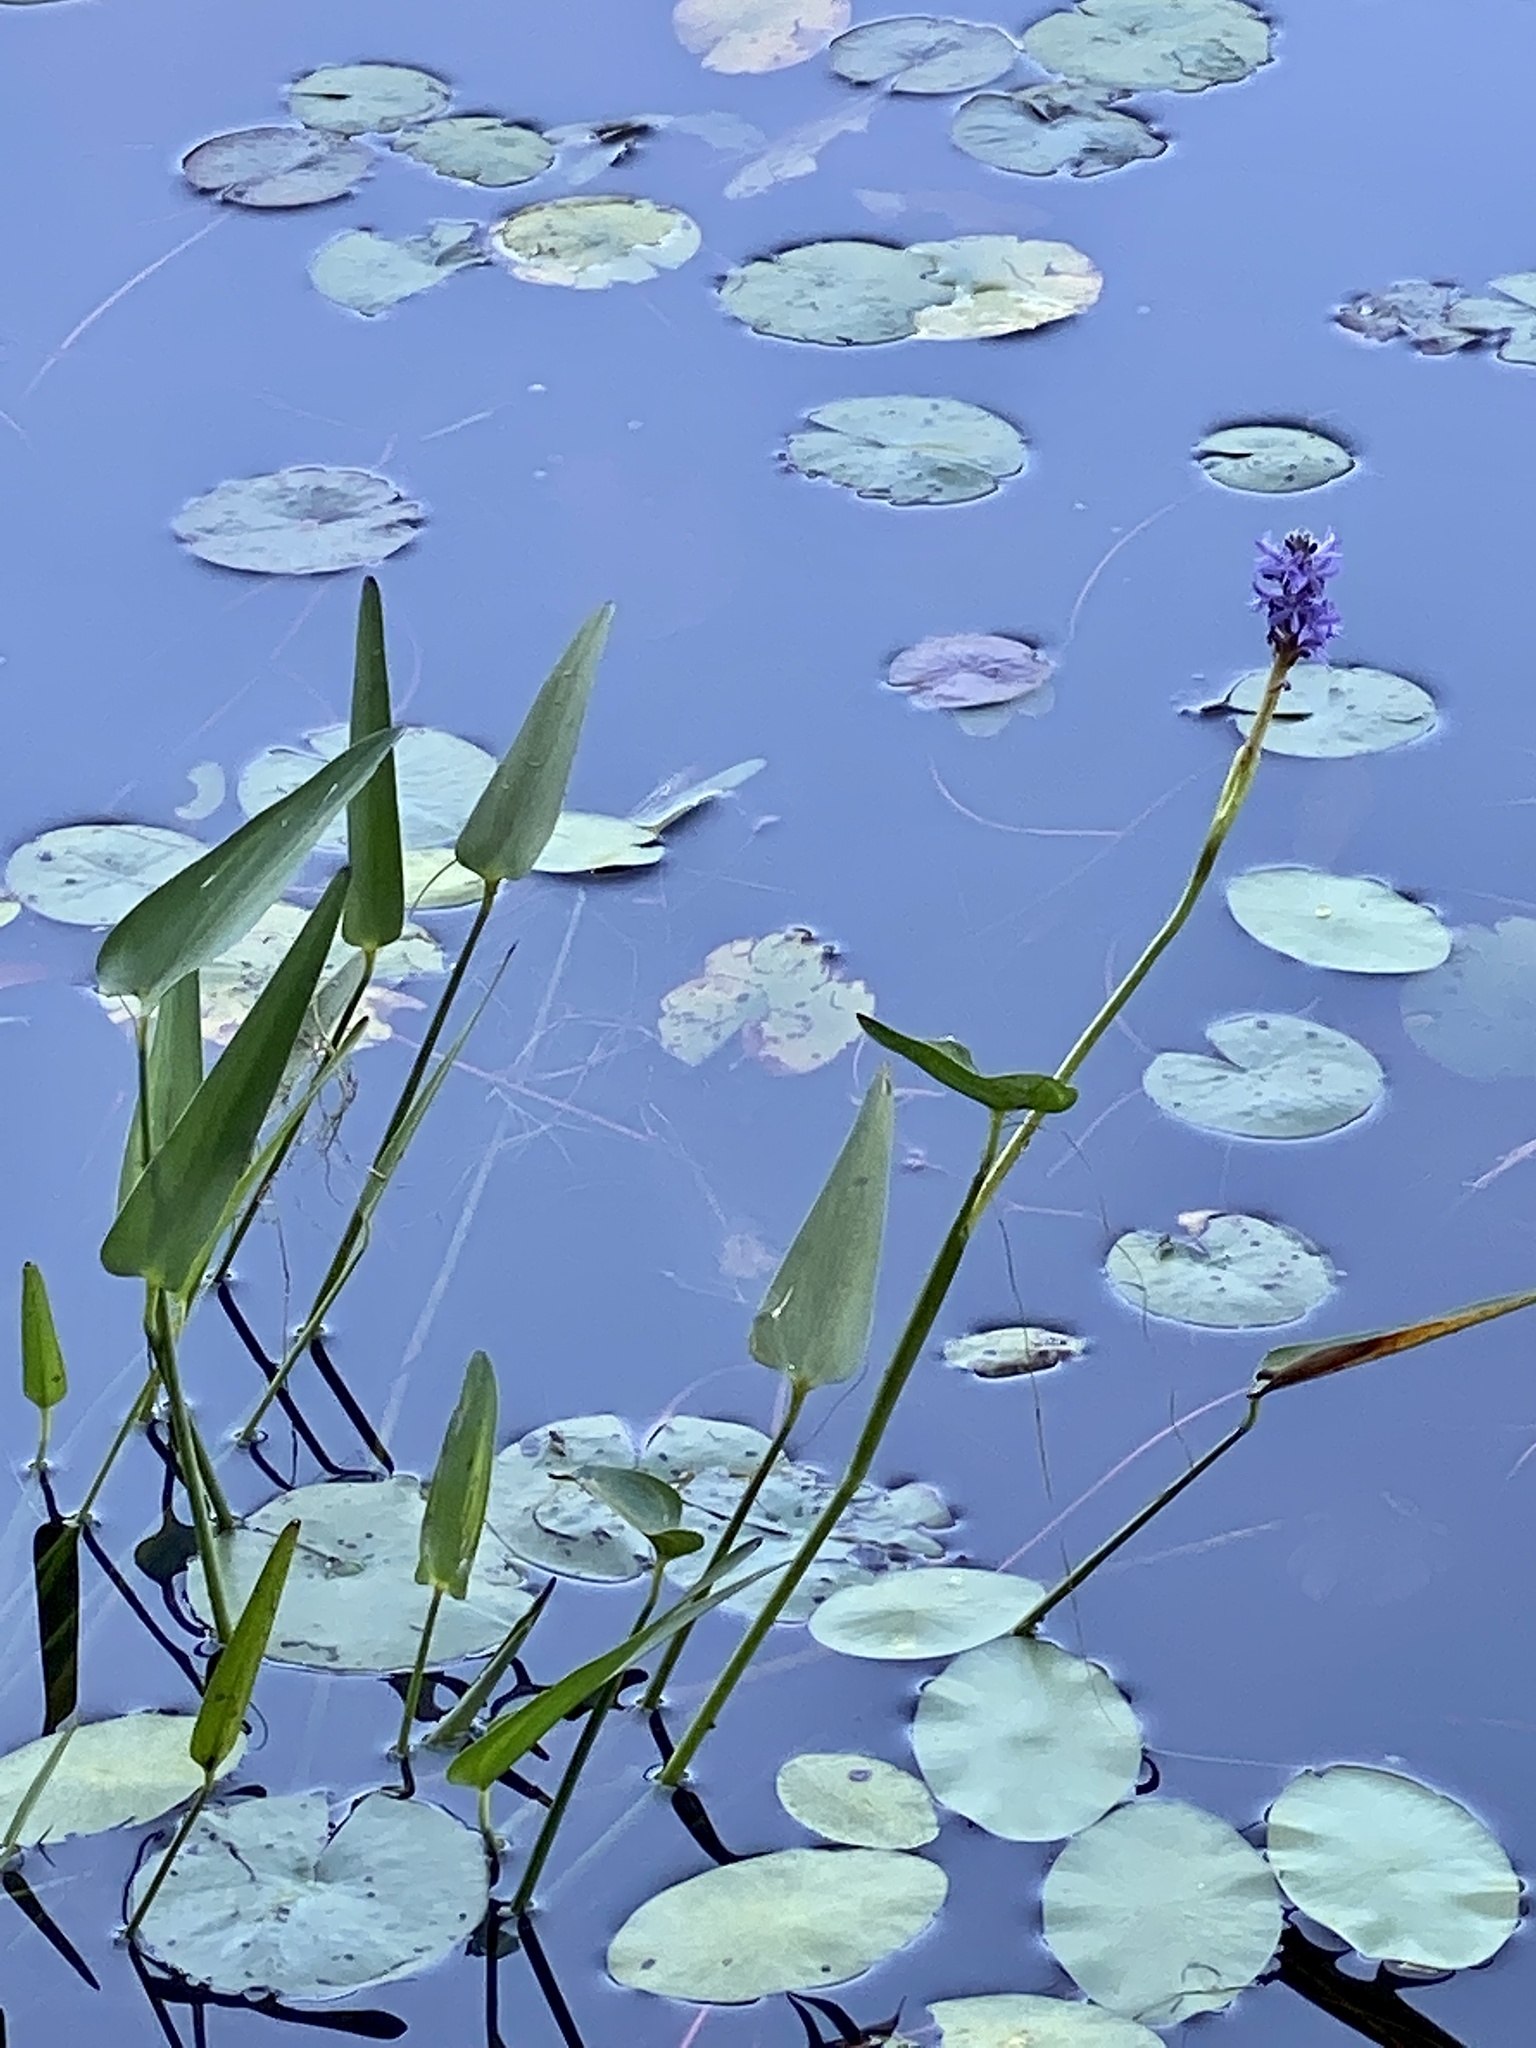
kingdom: Plantae
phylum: Tracheophyta
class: Liliopsida
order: Commelinales
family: Pontederiaceae
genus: Pontederia
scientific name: Pontederia cordata
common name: Pickerelweed
